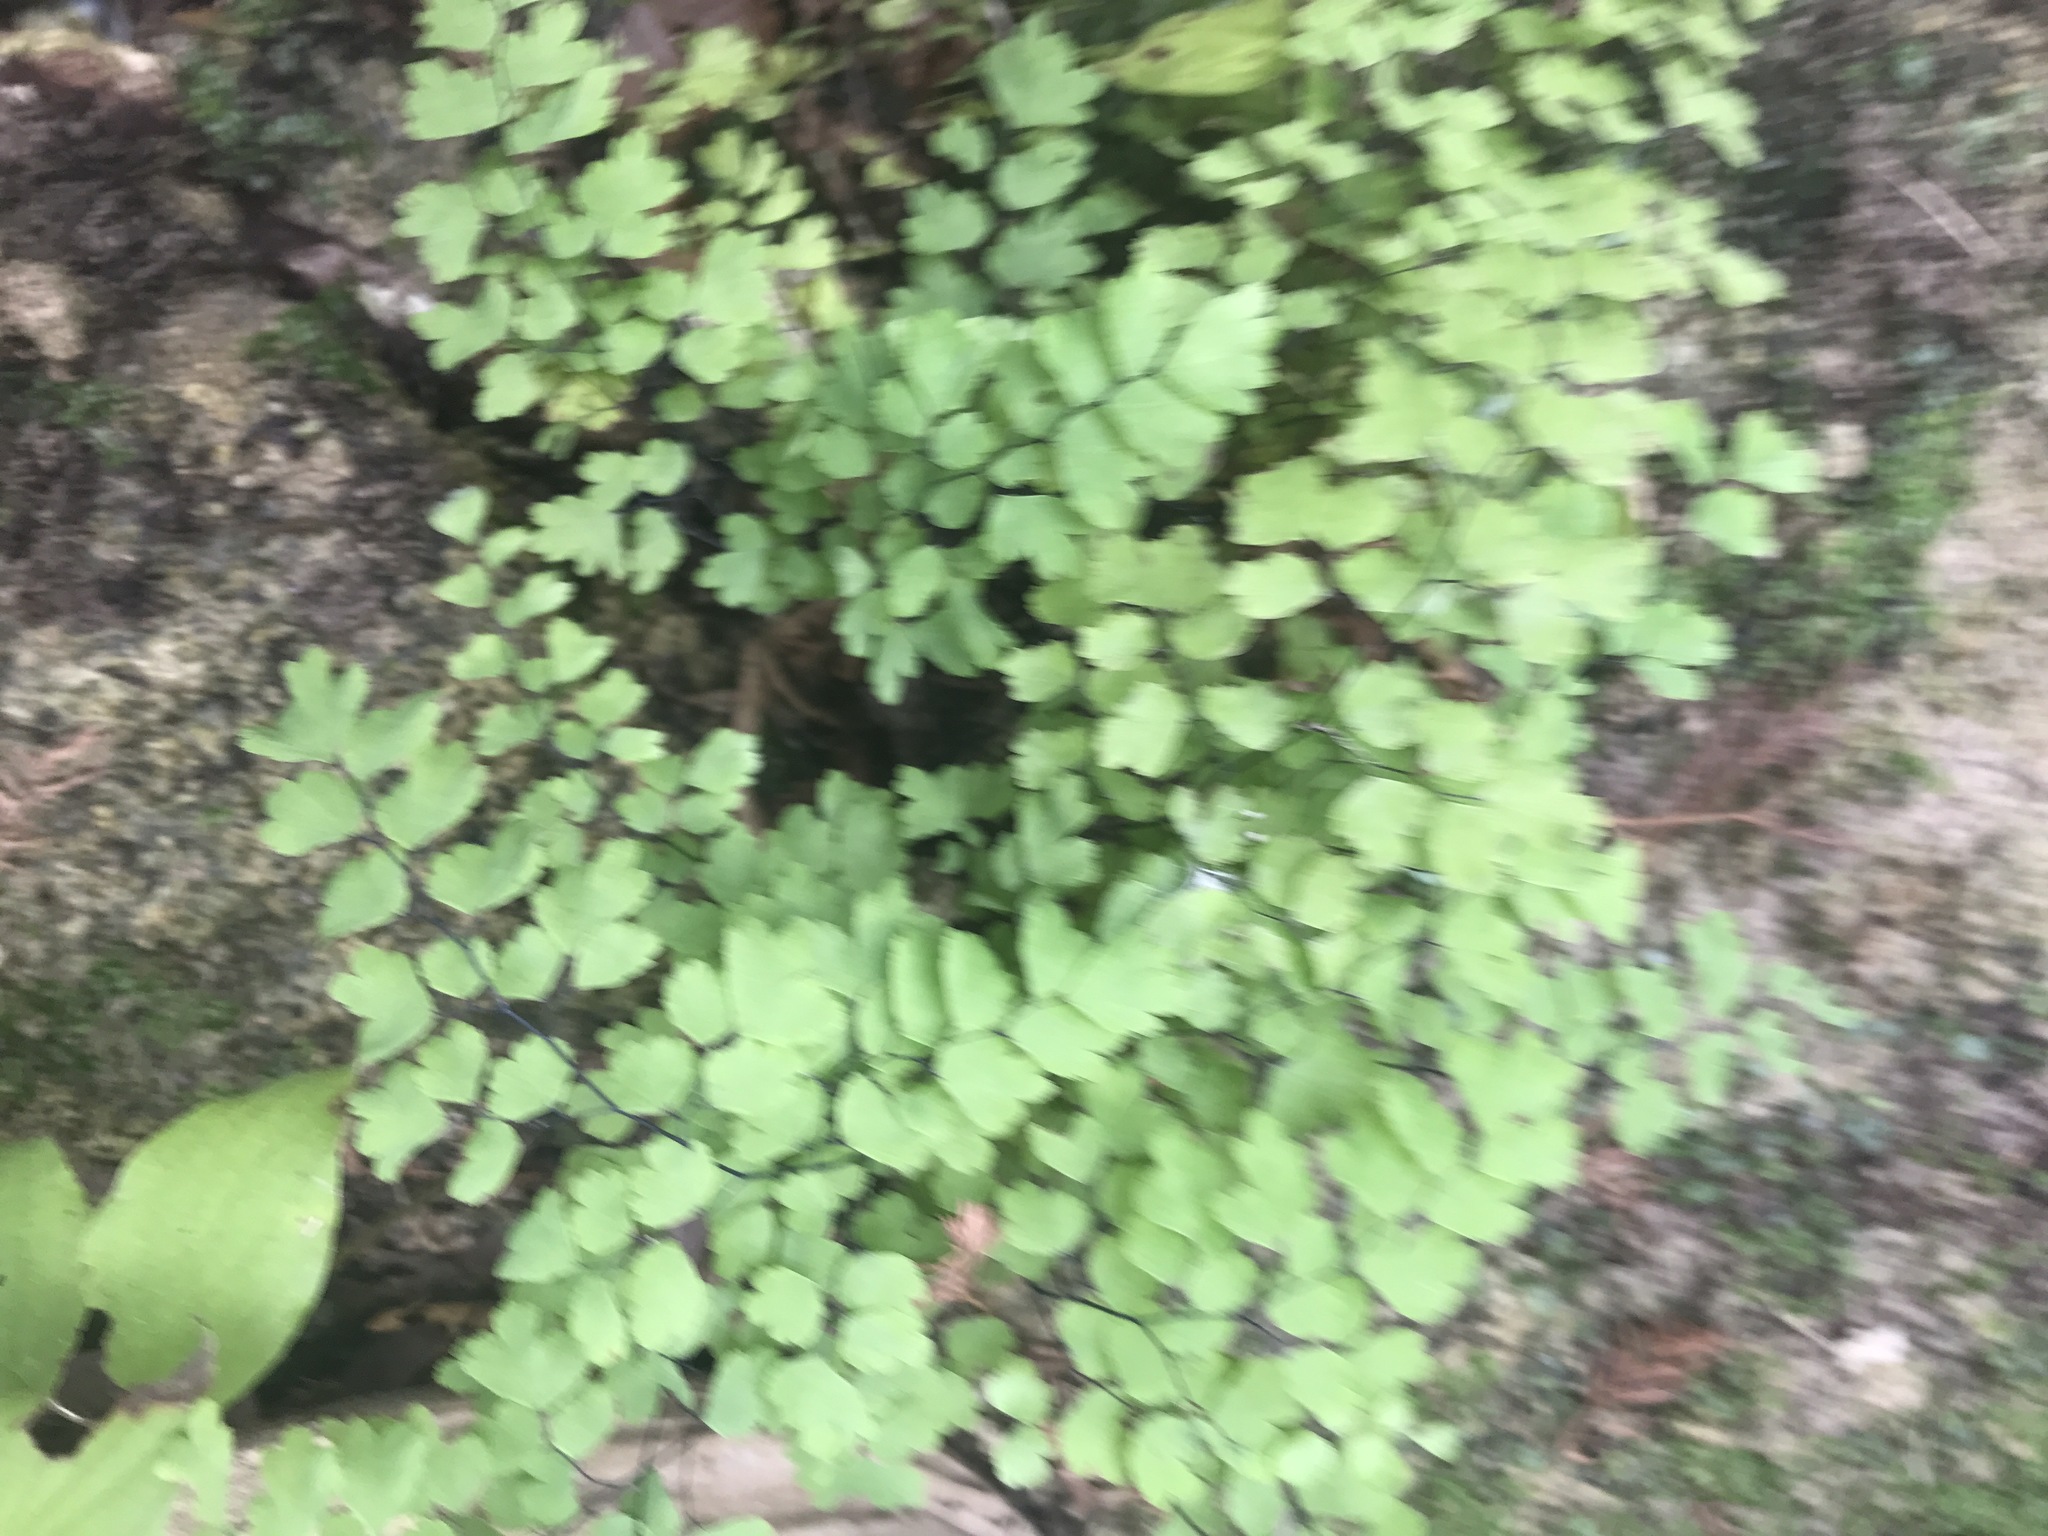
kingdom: Plantae
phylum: Tracheophyta
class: Polypodiopsida
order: Polypodiales
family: Pteridaceae
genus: Adiantum
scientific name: Adiantum capillus-veneris
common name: Maidenhair fern
